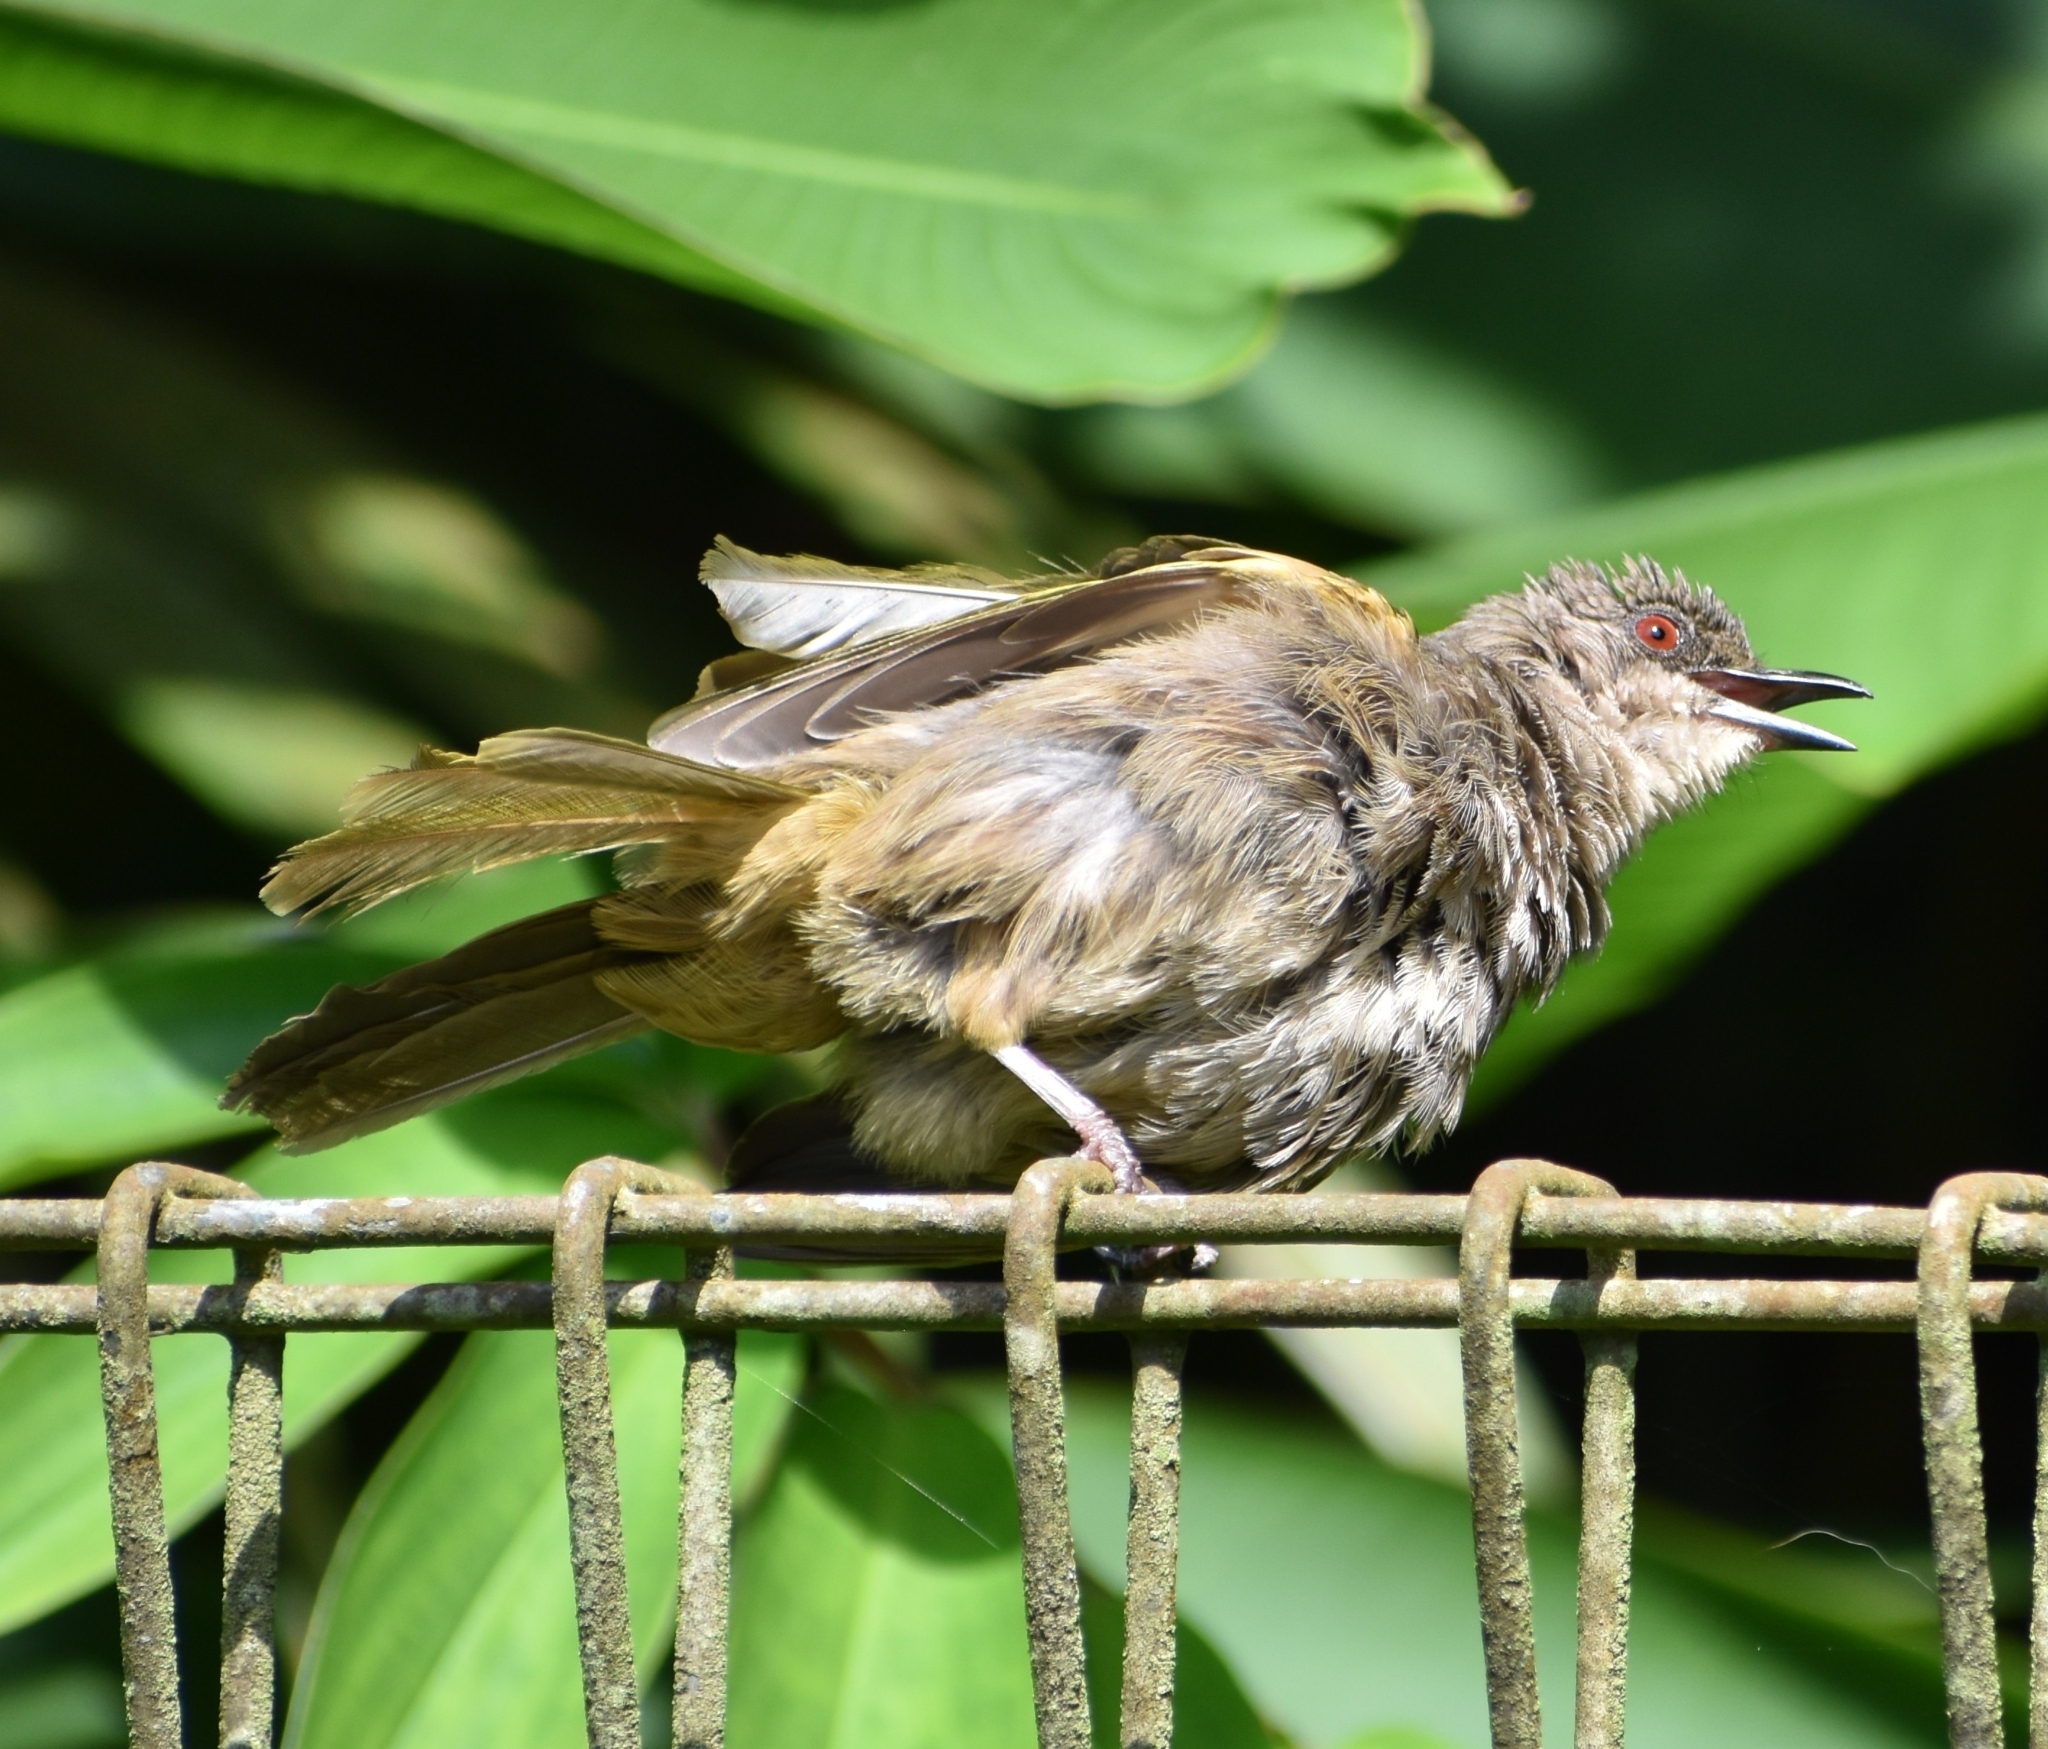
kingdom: Animalia
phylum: Chordata
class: Aves
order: Passeriformes
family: Pycnonotidae
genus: Pycnonotus
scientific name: Pycnonotus plumosus
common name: Olive-winged bulbul
